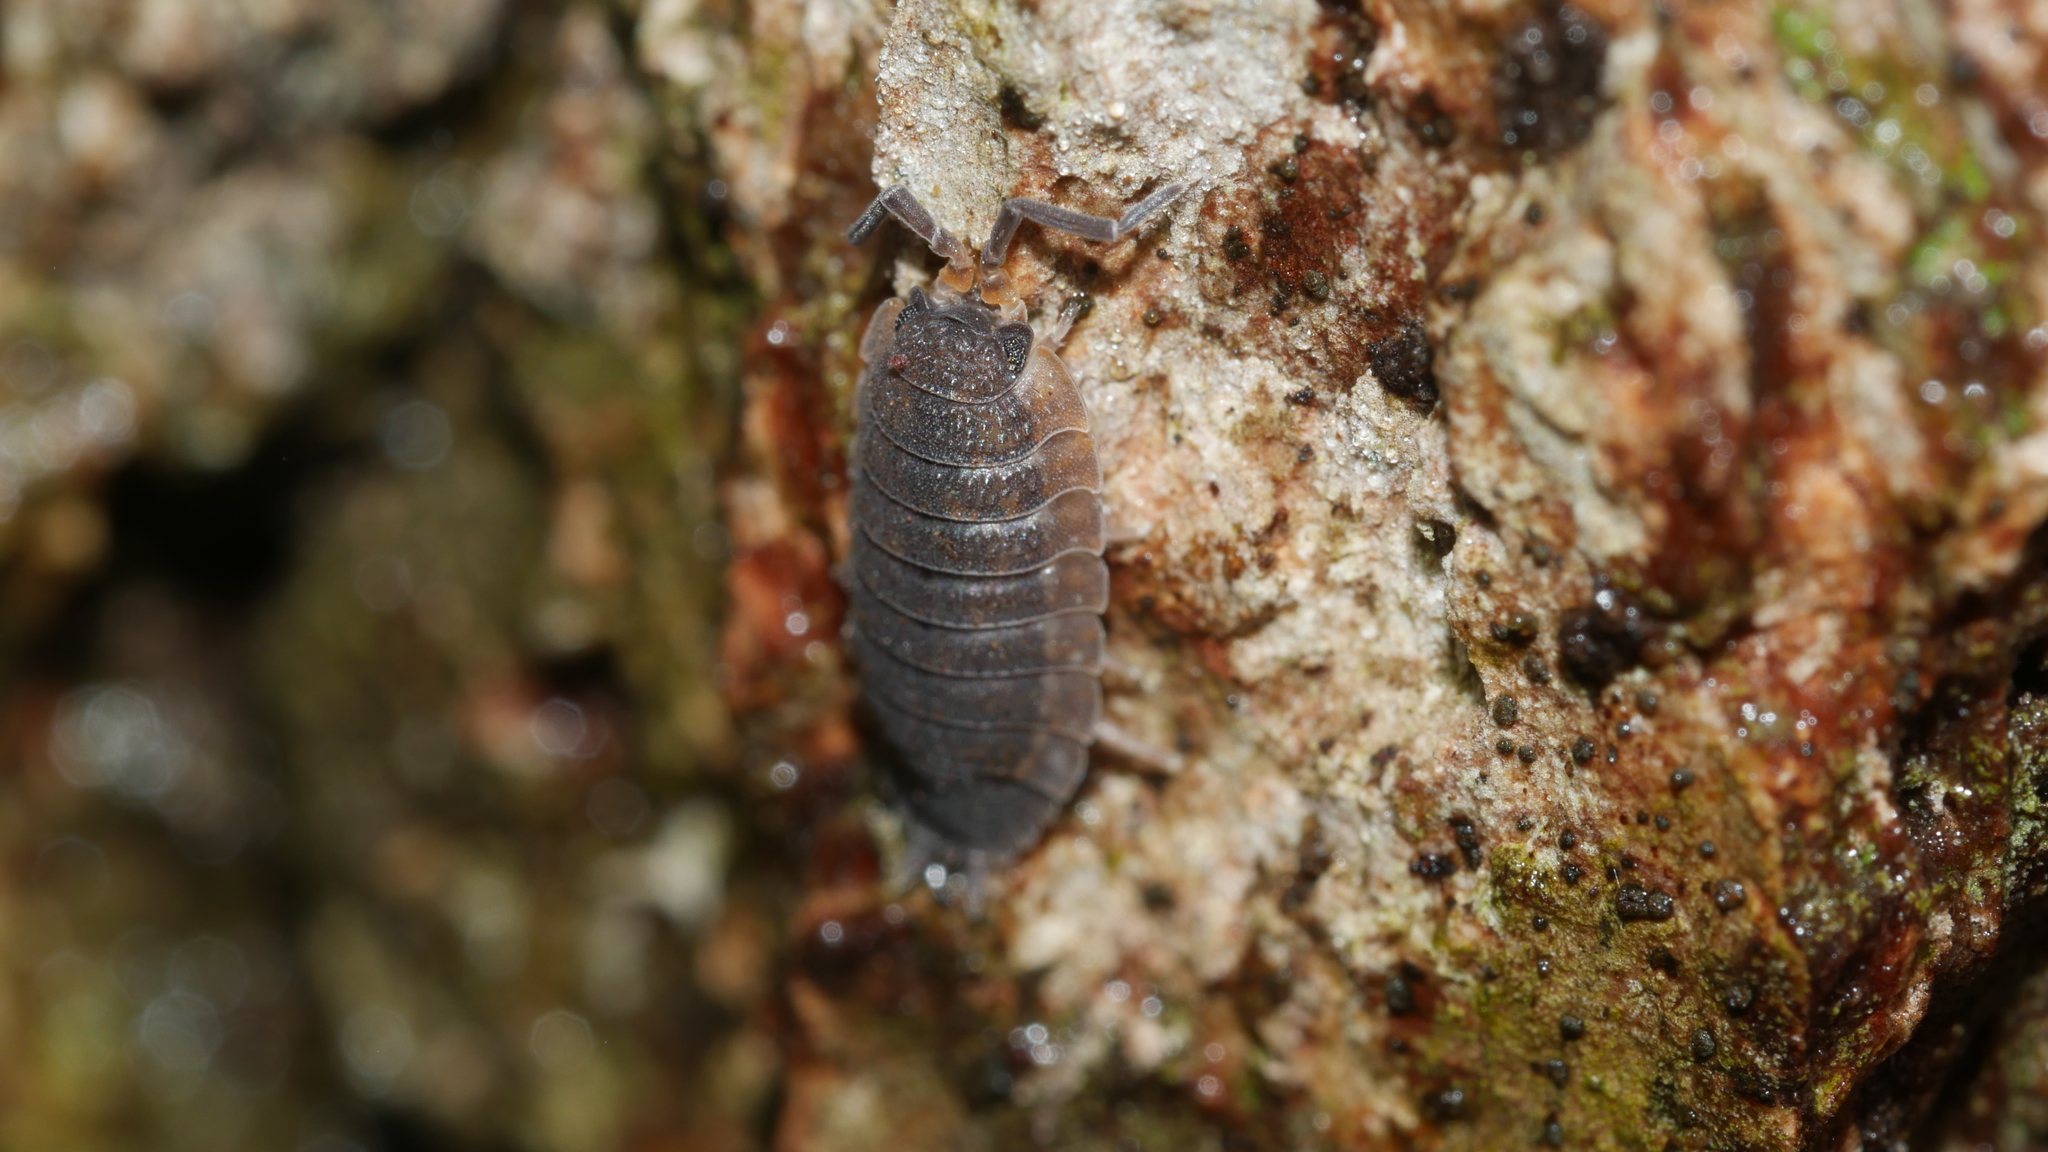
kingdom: Animalia
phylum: Arthropoda
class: Malacostraca
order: Isopoda
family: Porcellionidae
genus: Porcellio
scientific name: Porcellio scaber
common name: Common rough woodlouse
